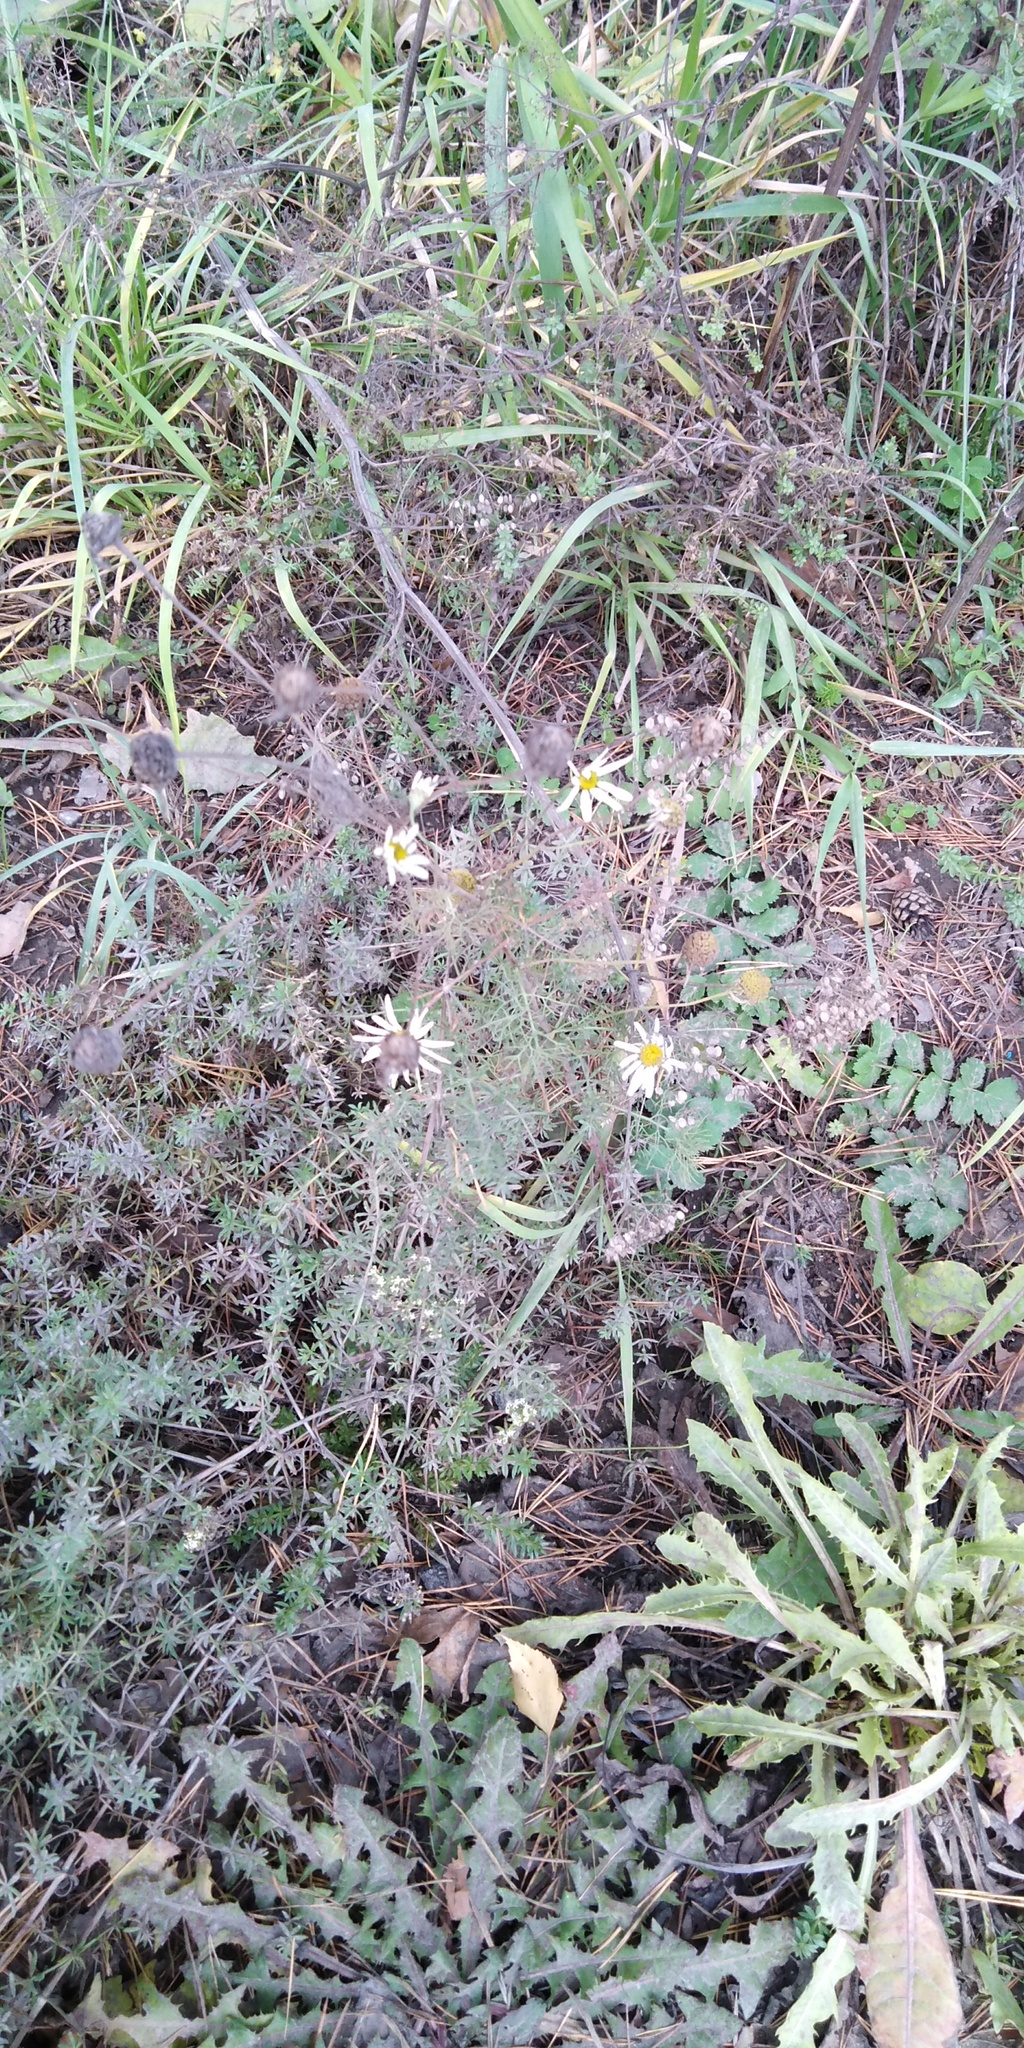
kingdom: Plantae
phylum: Tracheophyta
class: Magnoliopsida
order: Asterales
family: Asteraceae
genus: Tripleurospermum
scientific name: Tripleurospermum inodorum
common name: Scentless mayweed
